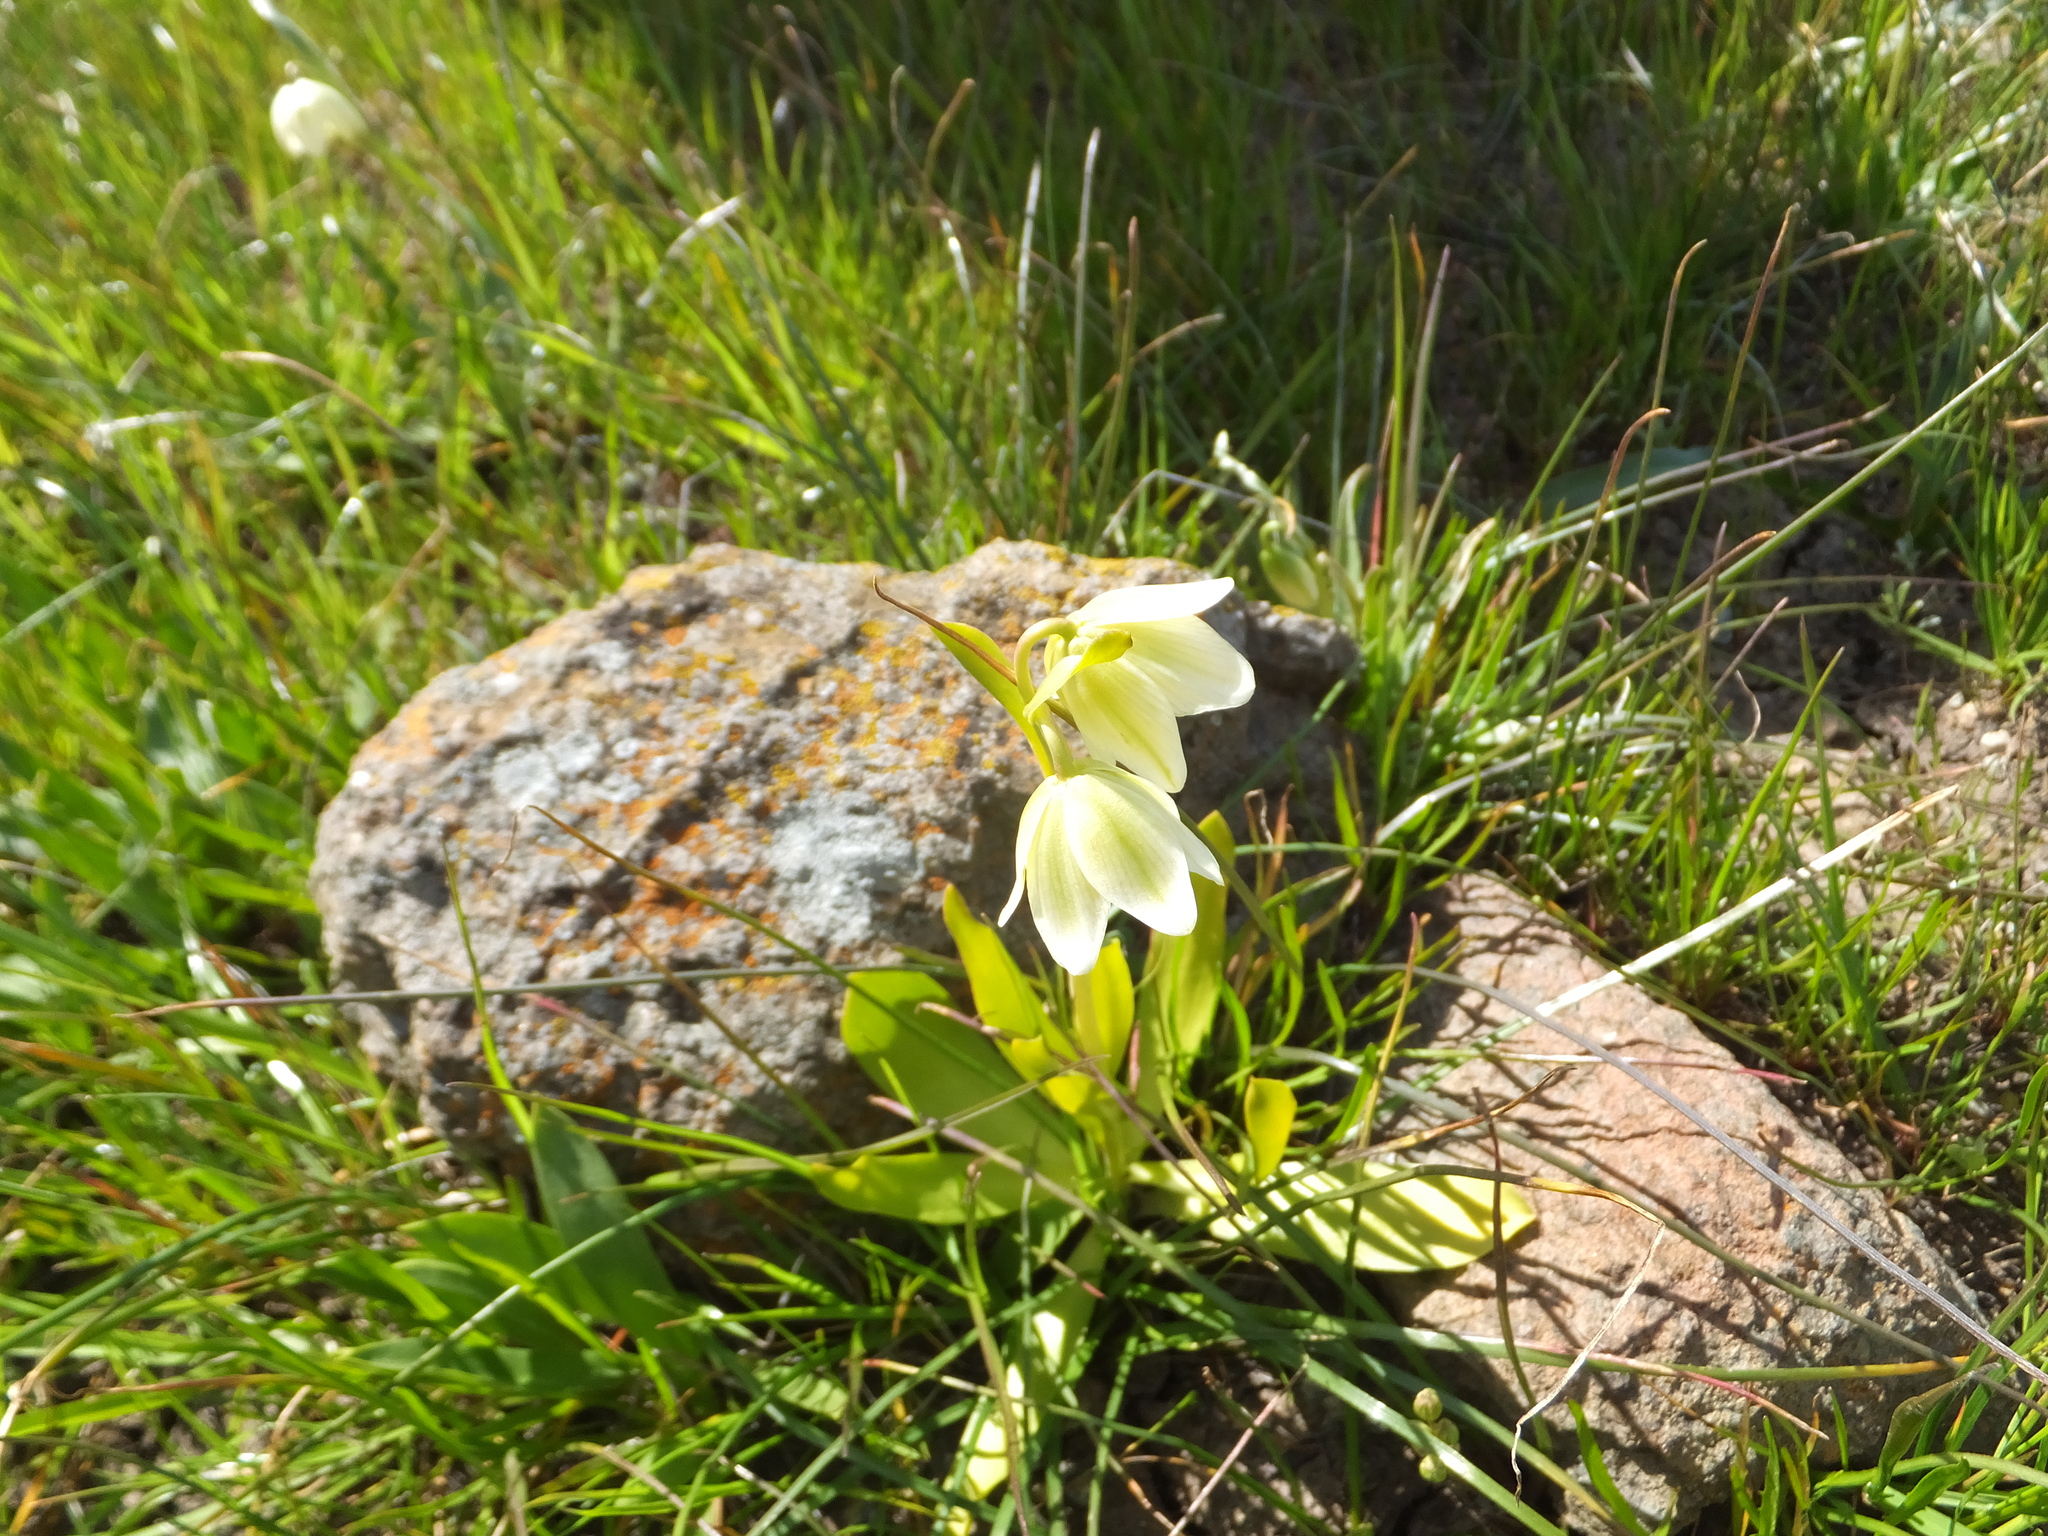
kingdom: Plantae
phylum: Tracheophyta
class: Liliopsida
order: Liliales
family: Liliaceae
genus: Fritillaria
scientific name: Fritillaria liliacea
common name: Fragrant fritillary
